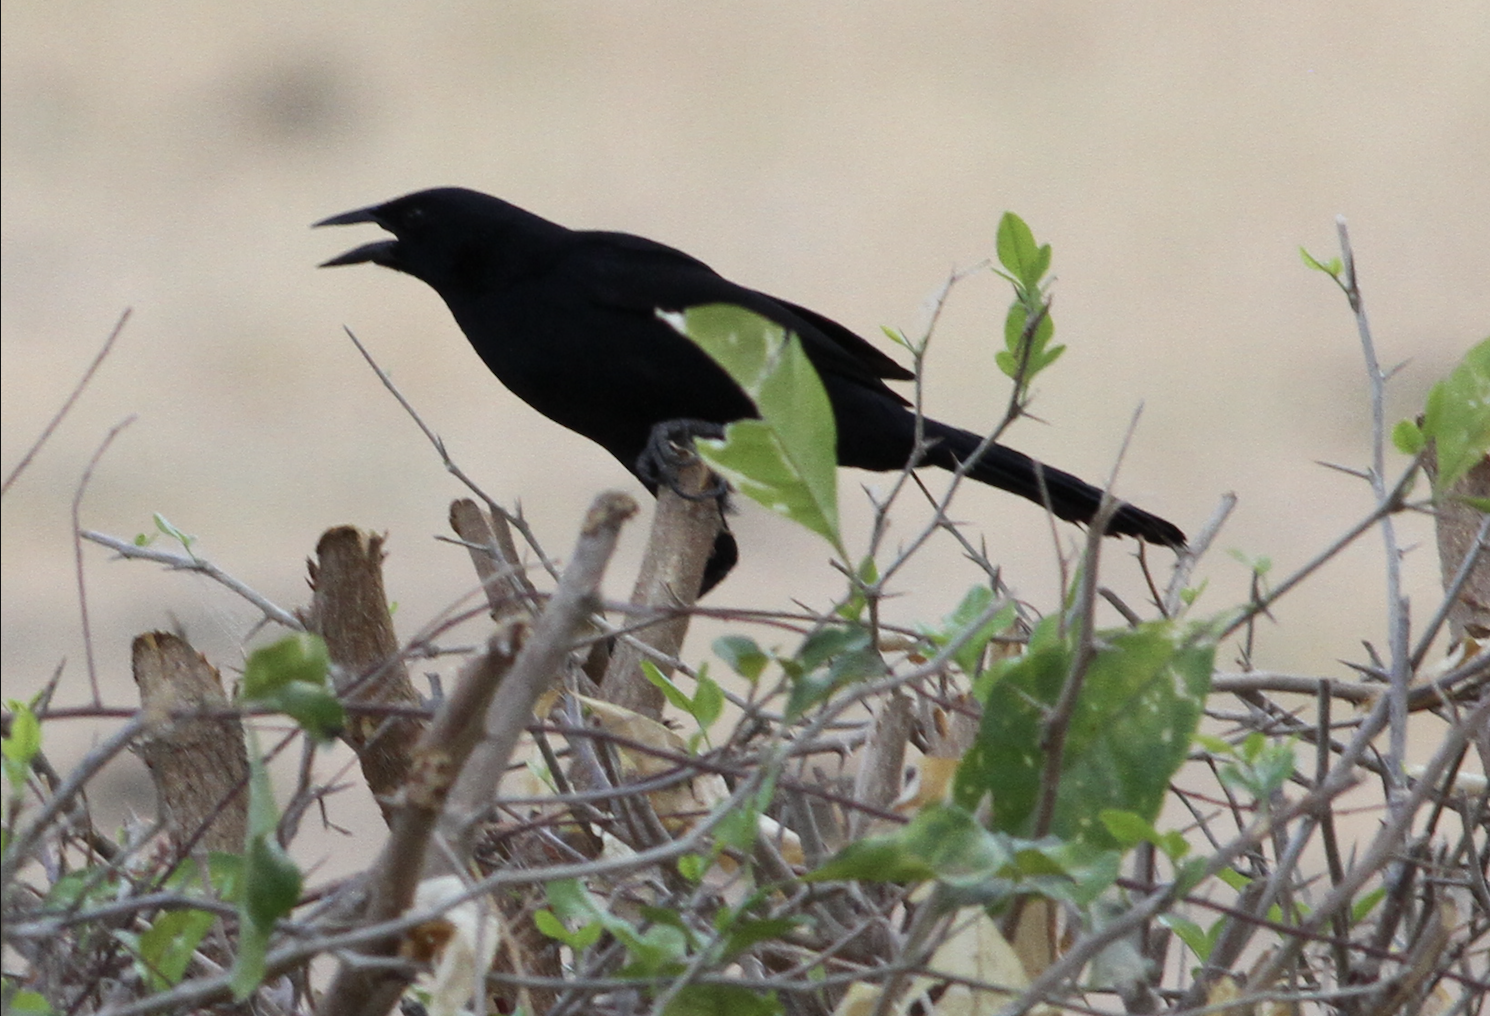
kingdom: Animalia
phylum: Chordata
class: Aves
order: Passeriformes
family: Icteridae
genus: Dives
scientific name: Dives dives
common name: Melodious blackbird
